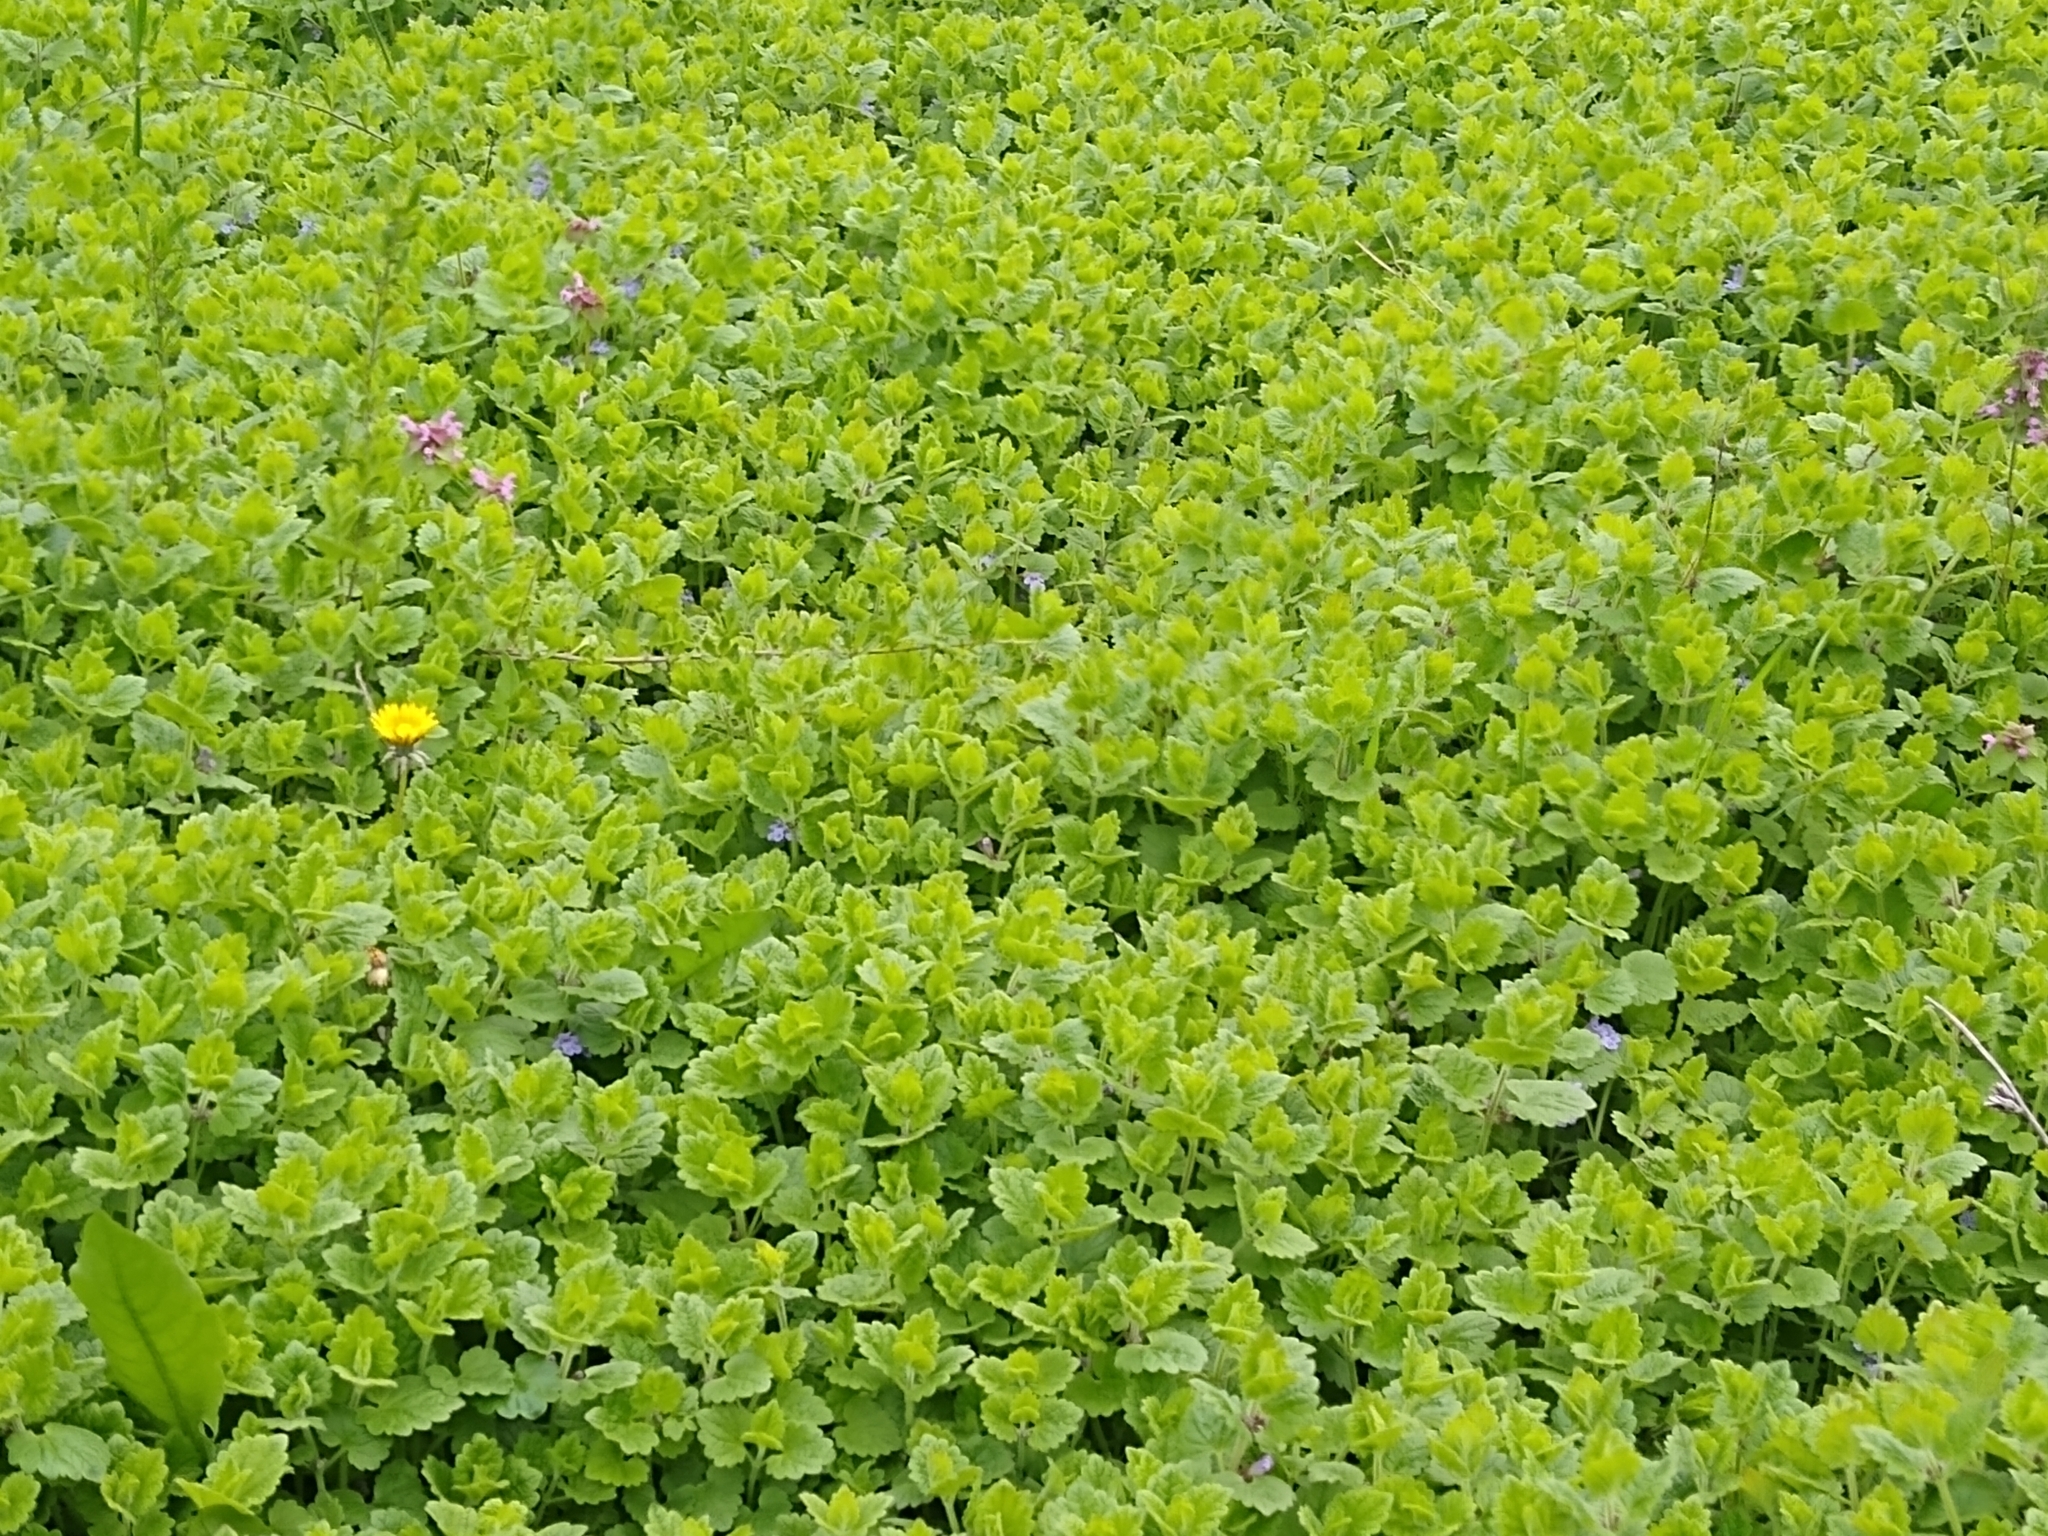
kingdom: Plantae
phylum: Tracheophyta
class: Magnoliopsida
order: Lamiales
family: Lamiaceae
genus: Glechoma
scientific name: Glechoma hederacea
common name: Ground ivy
